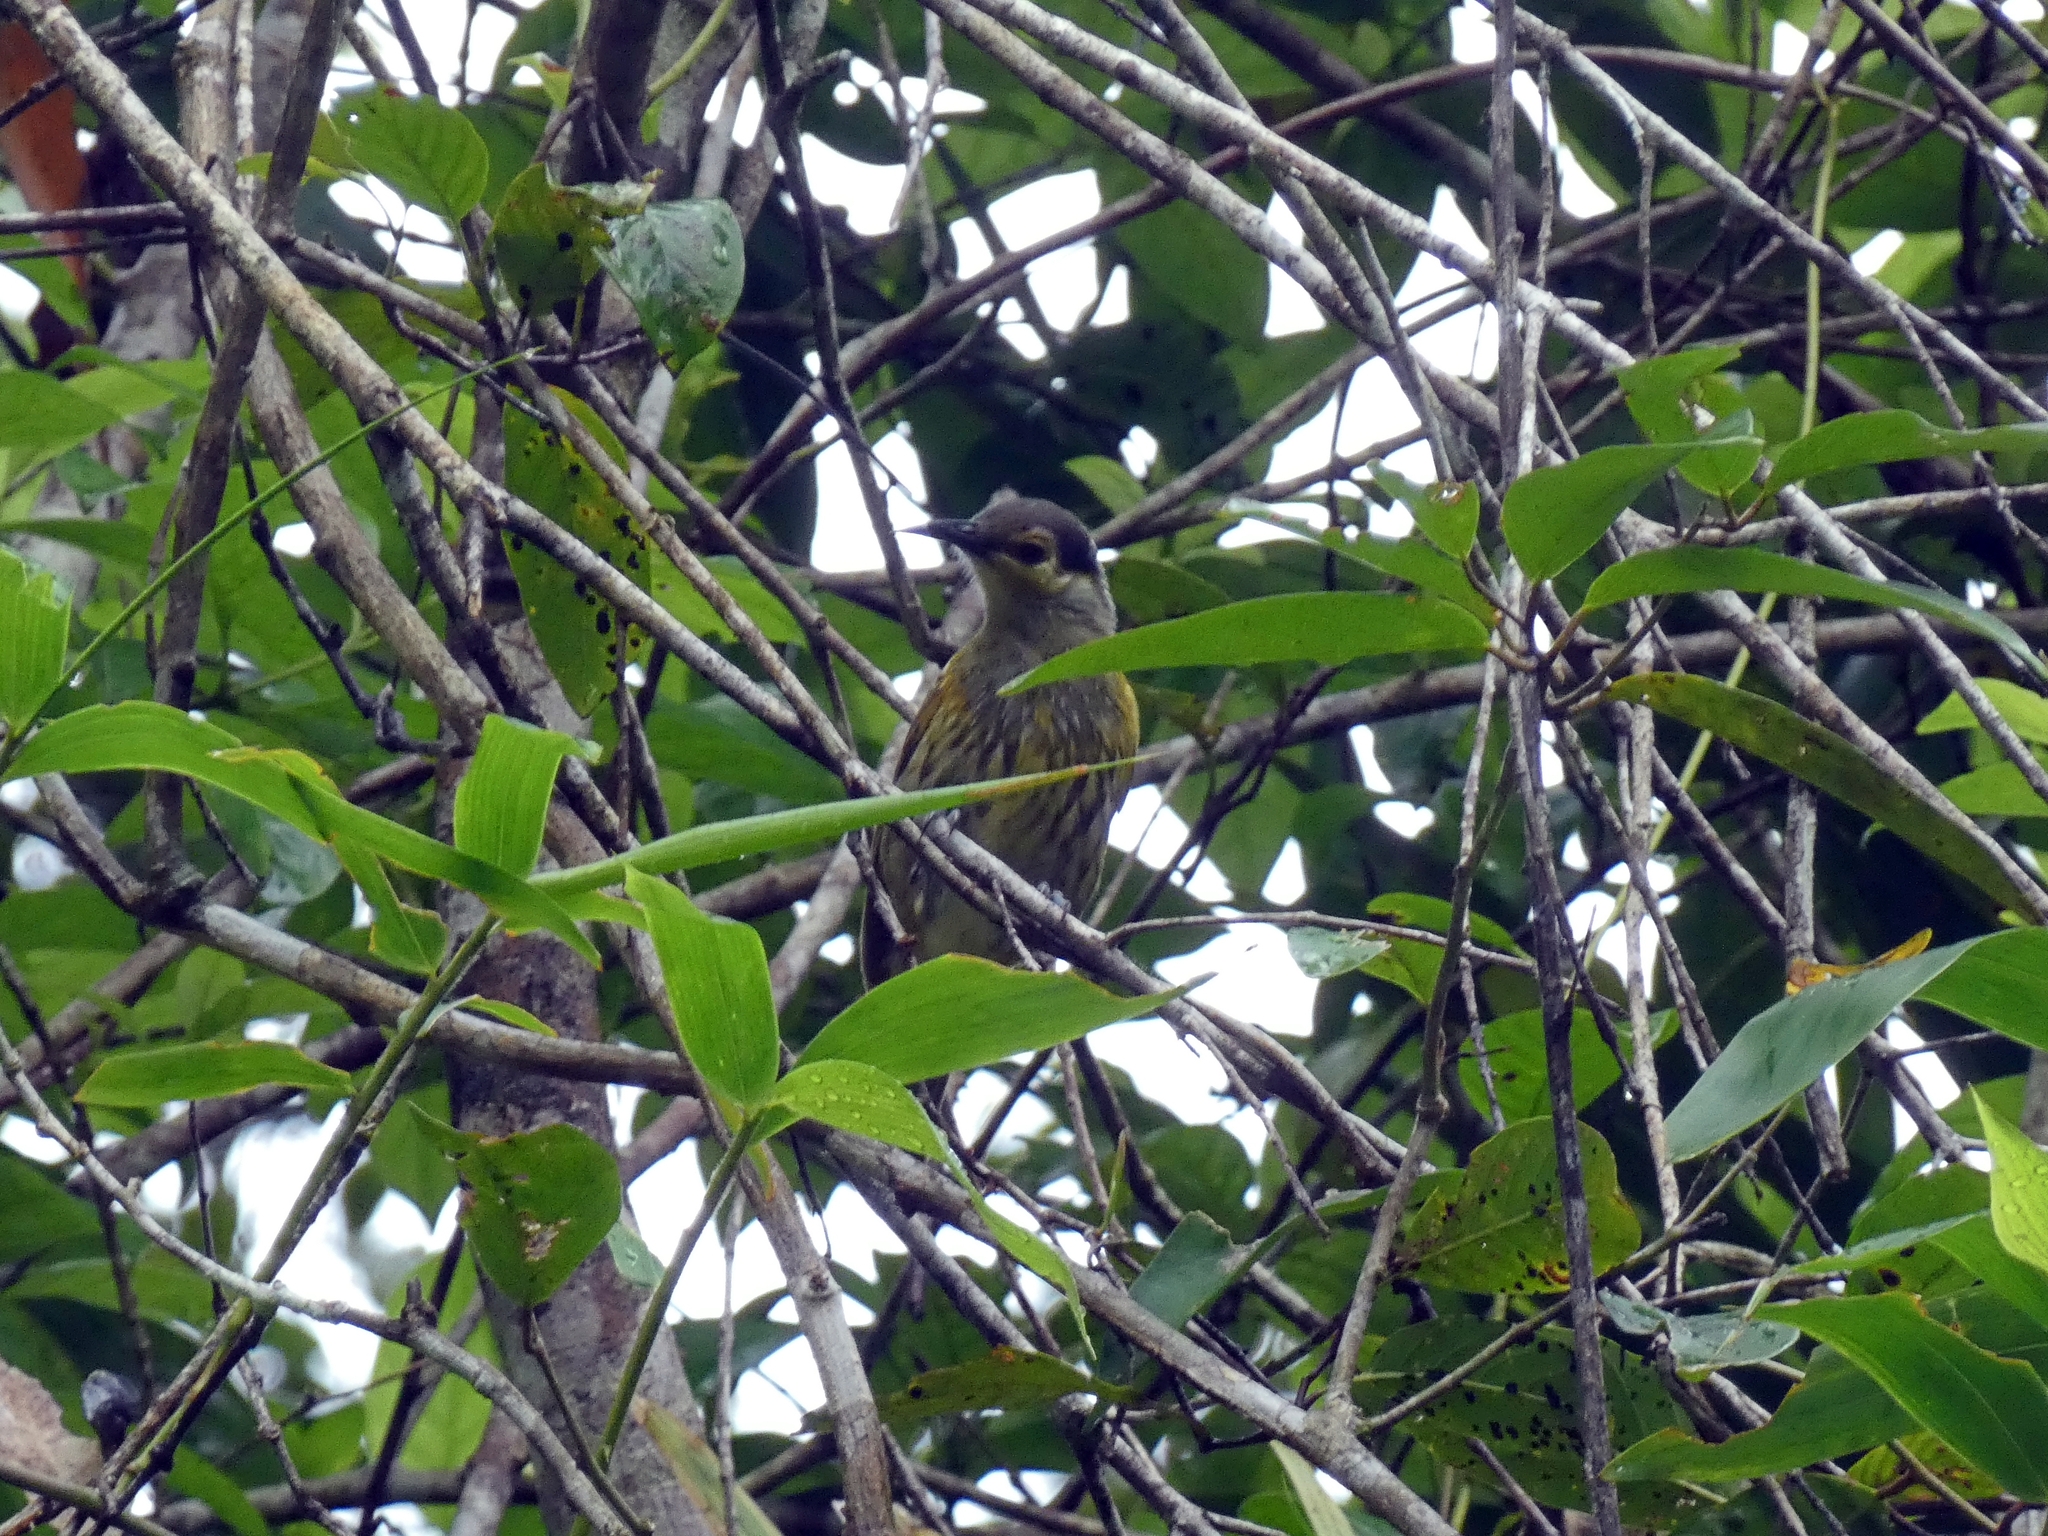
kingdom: Animalia
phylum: Chordata
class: Aves
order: Passeriformes
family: Meliphagidae
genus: Xanthotis
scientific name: Xanthotis macleayanus
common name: Macleay's honeyeater
